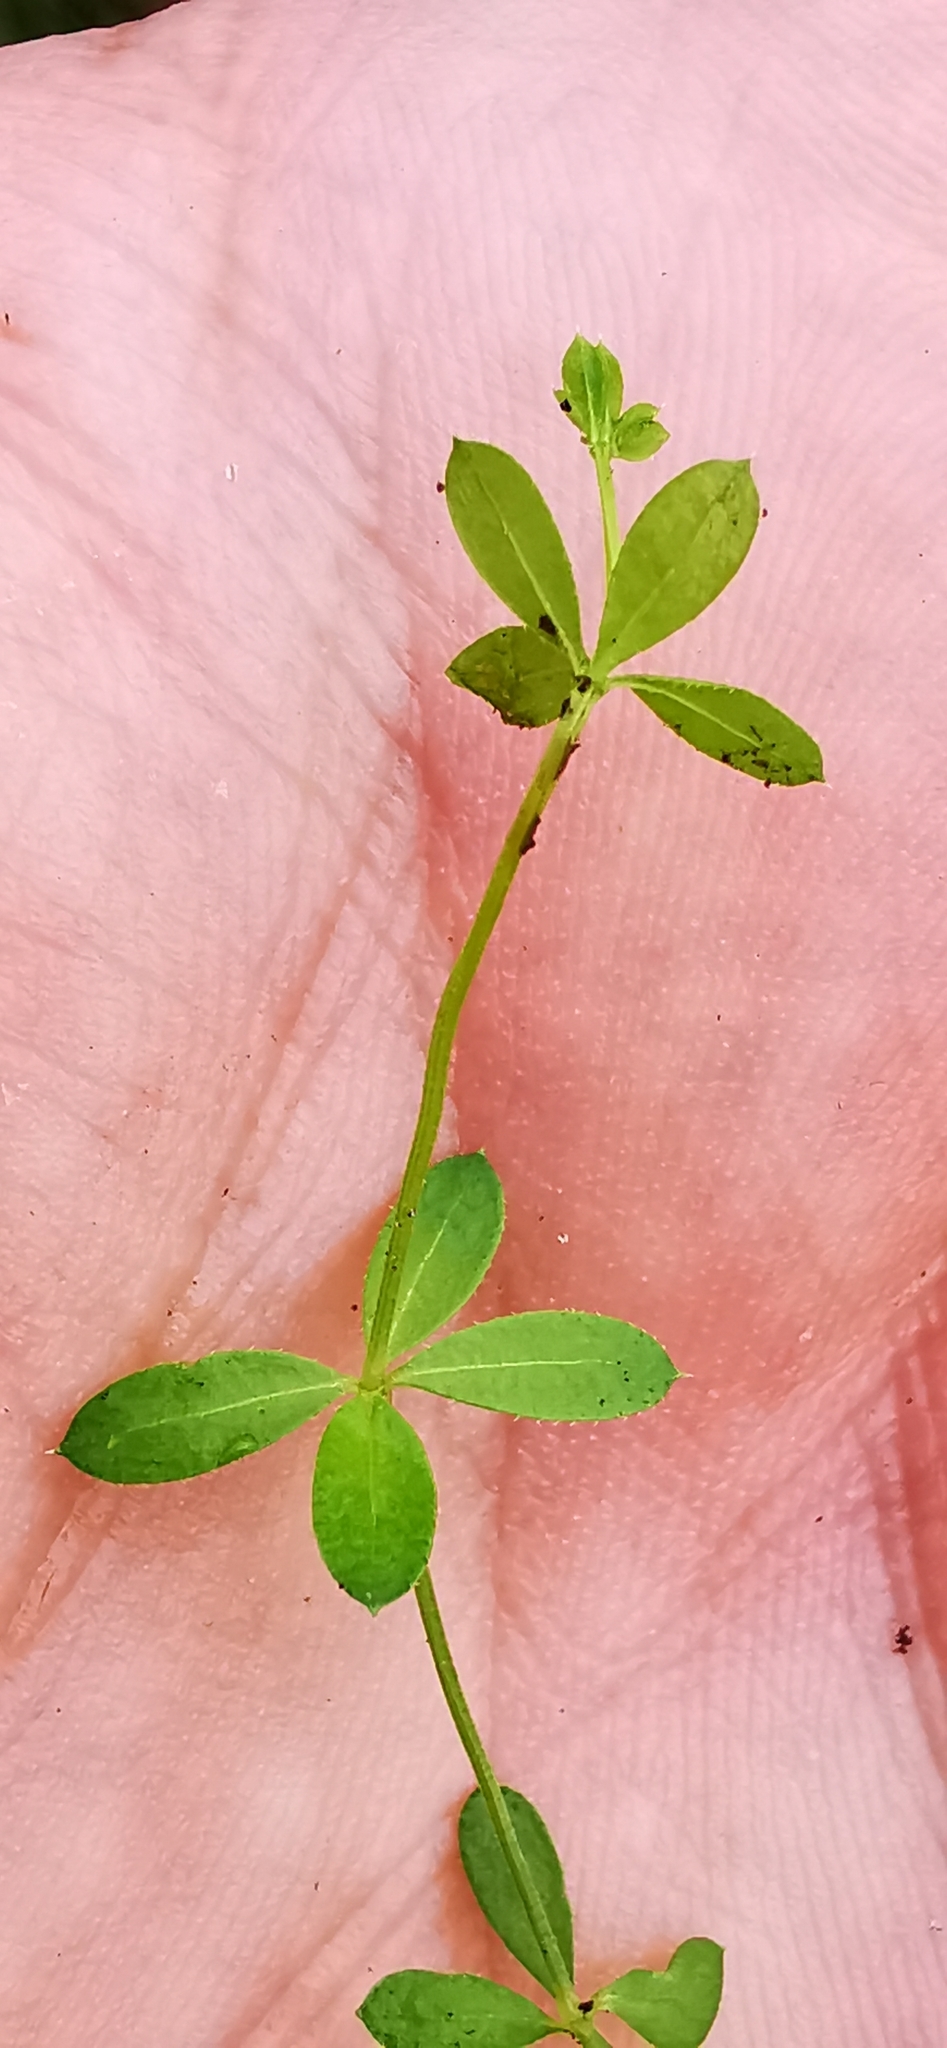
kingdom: Plantae
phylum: Tracheophyta
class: Magnoliopsida
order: Gentianales
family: Rubiaceae
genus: Galium
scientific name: Galium uliginosum
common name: Fen bedstraw
